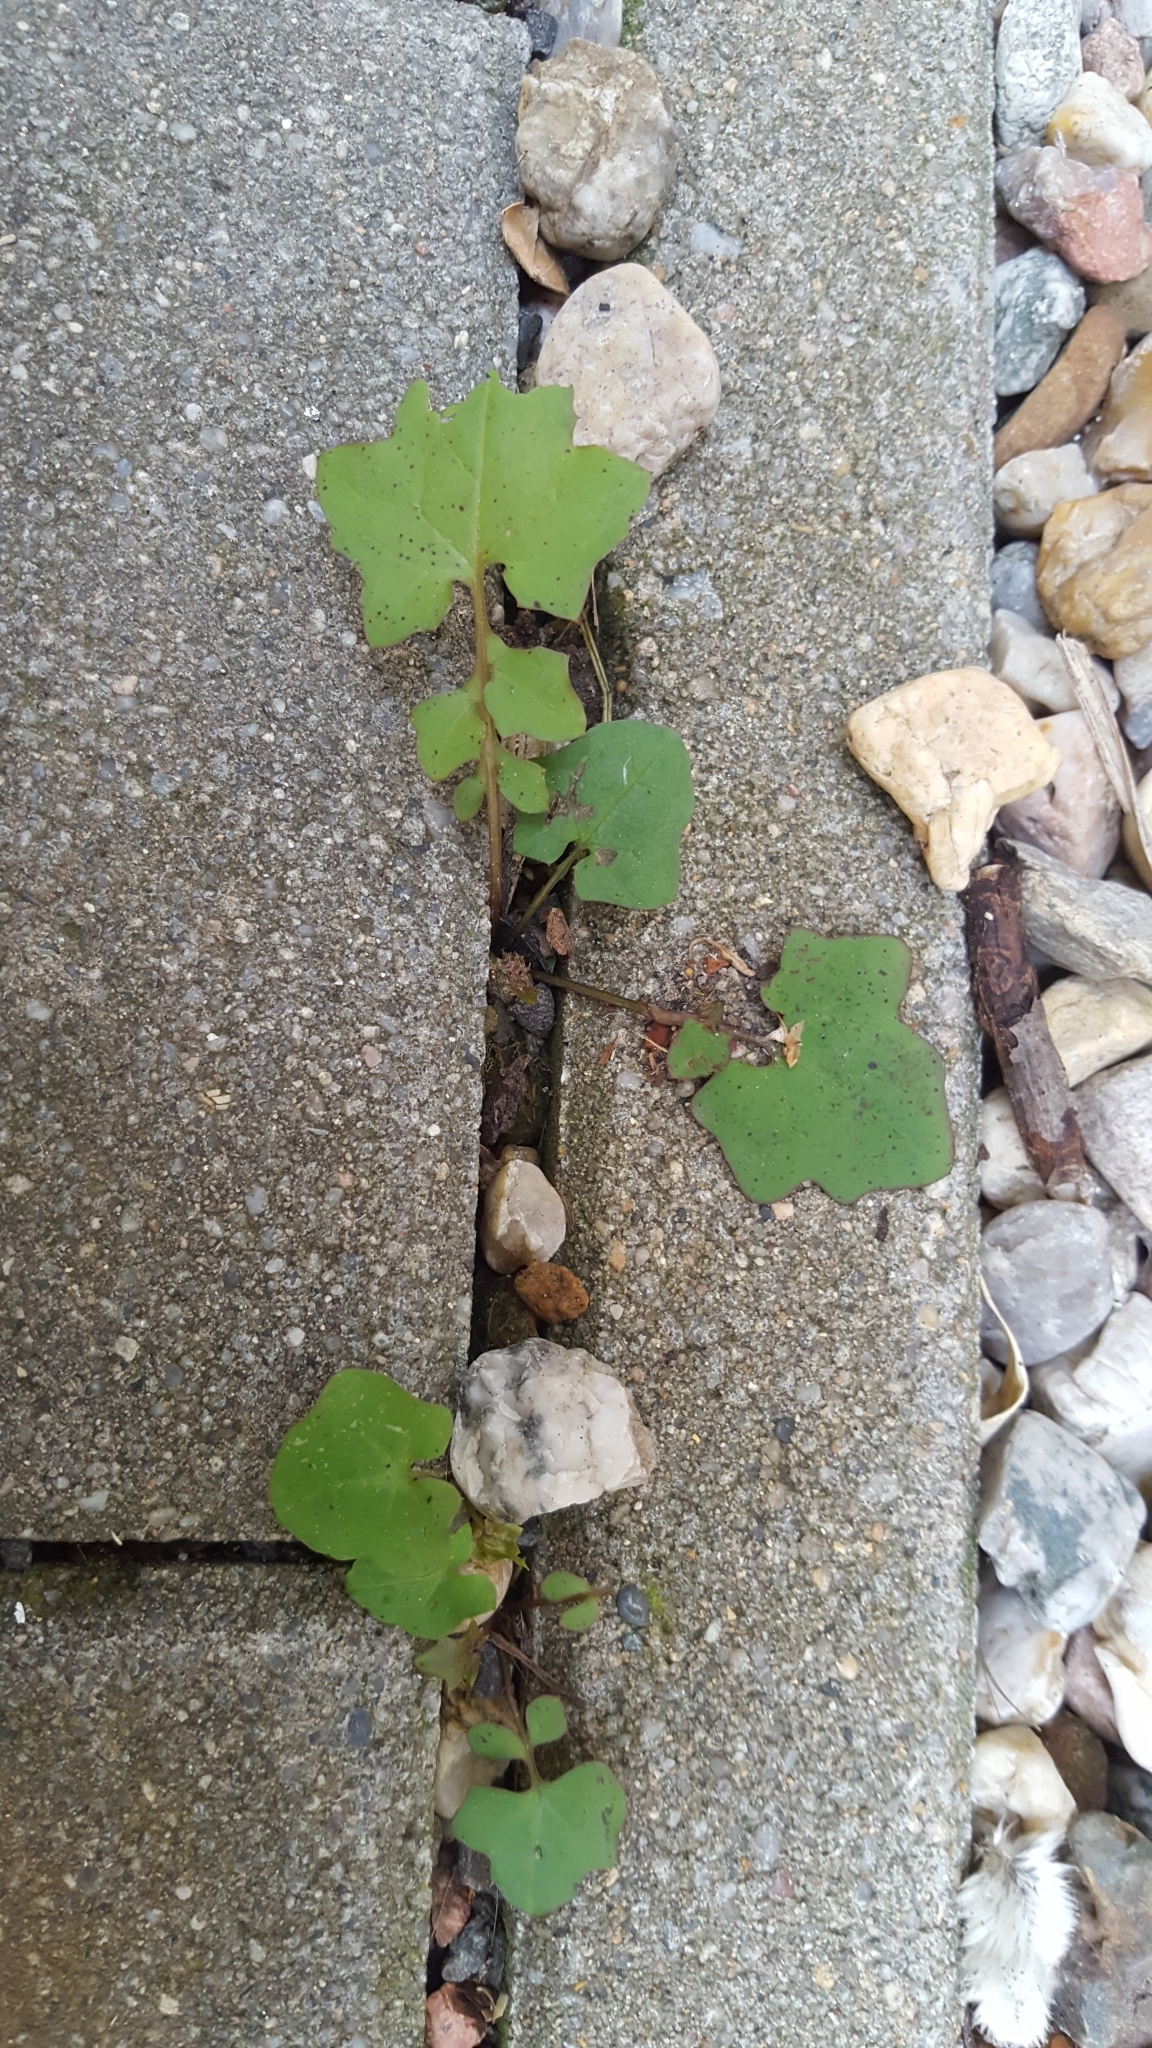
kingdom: Plantae
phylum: Tracheophyta
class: Magnoliopsida
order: Asterales
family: Asteraceae
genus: Mycelis
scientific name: Mycelis muralis
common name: Wall lettuce
